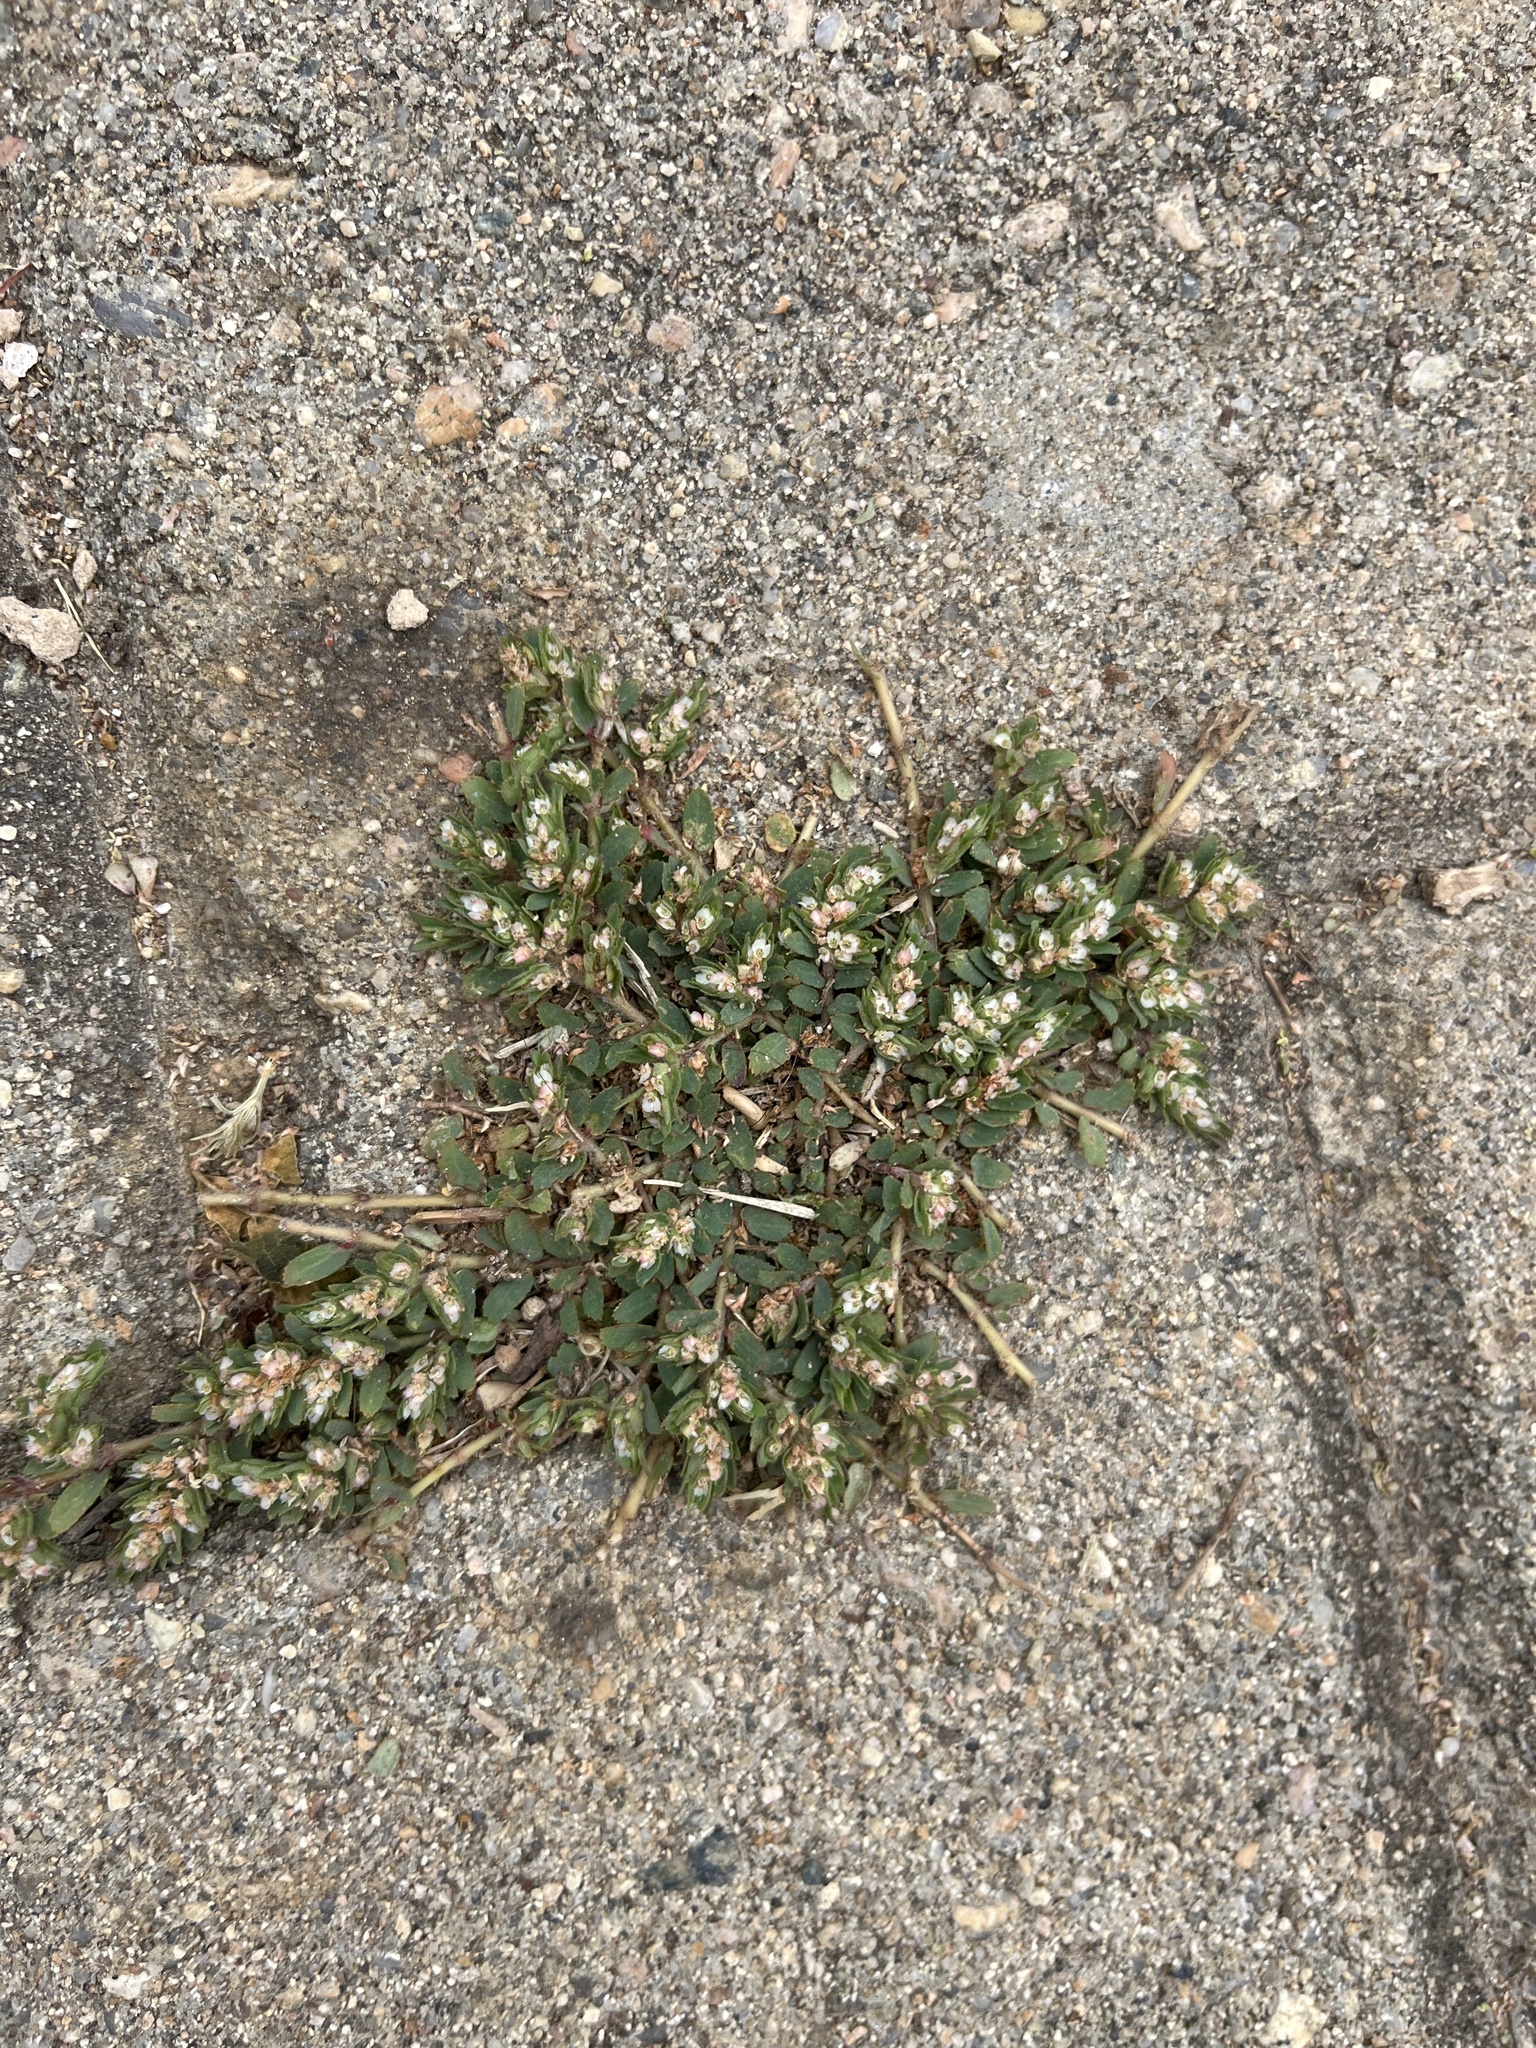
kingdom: Plantae
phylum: Tracheophyta
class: Magnoliopsida
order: Malpighiales
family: Euphorbiaceae
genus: Euphorbia
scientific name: Euphorbia indivisa
